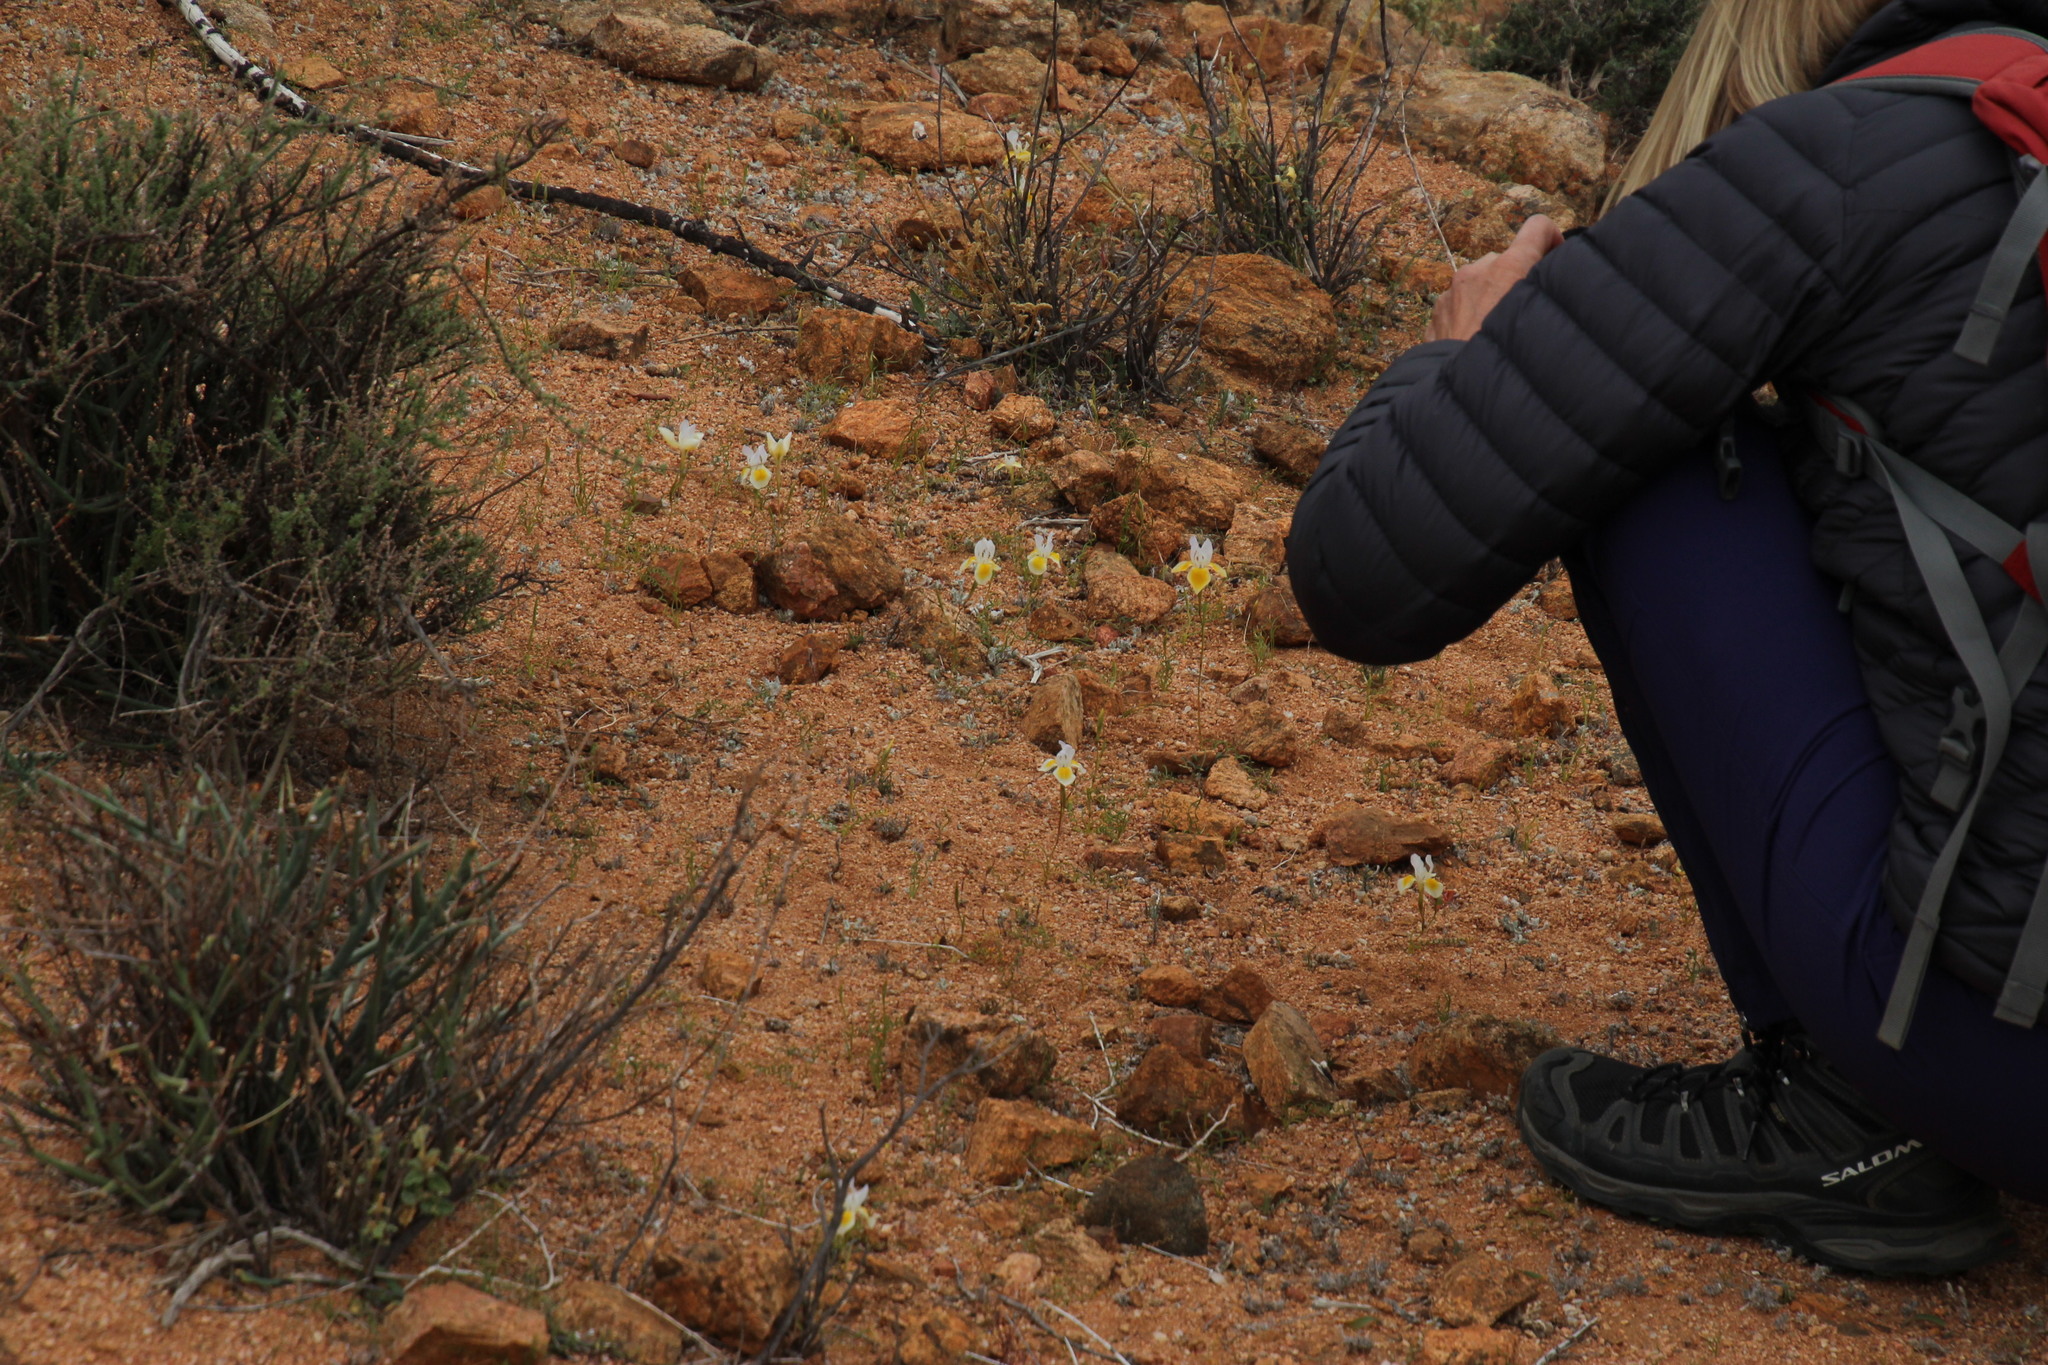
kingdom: Plantae
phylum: Tracheophyta
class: Liliopsida
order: Asparagales
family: Iridaceae
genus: Moraea
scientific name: Moraea serpentina
